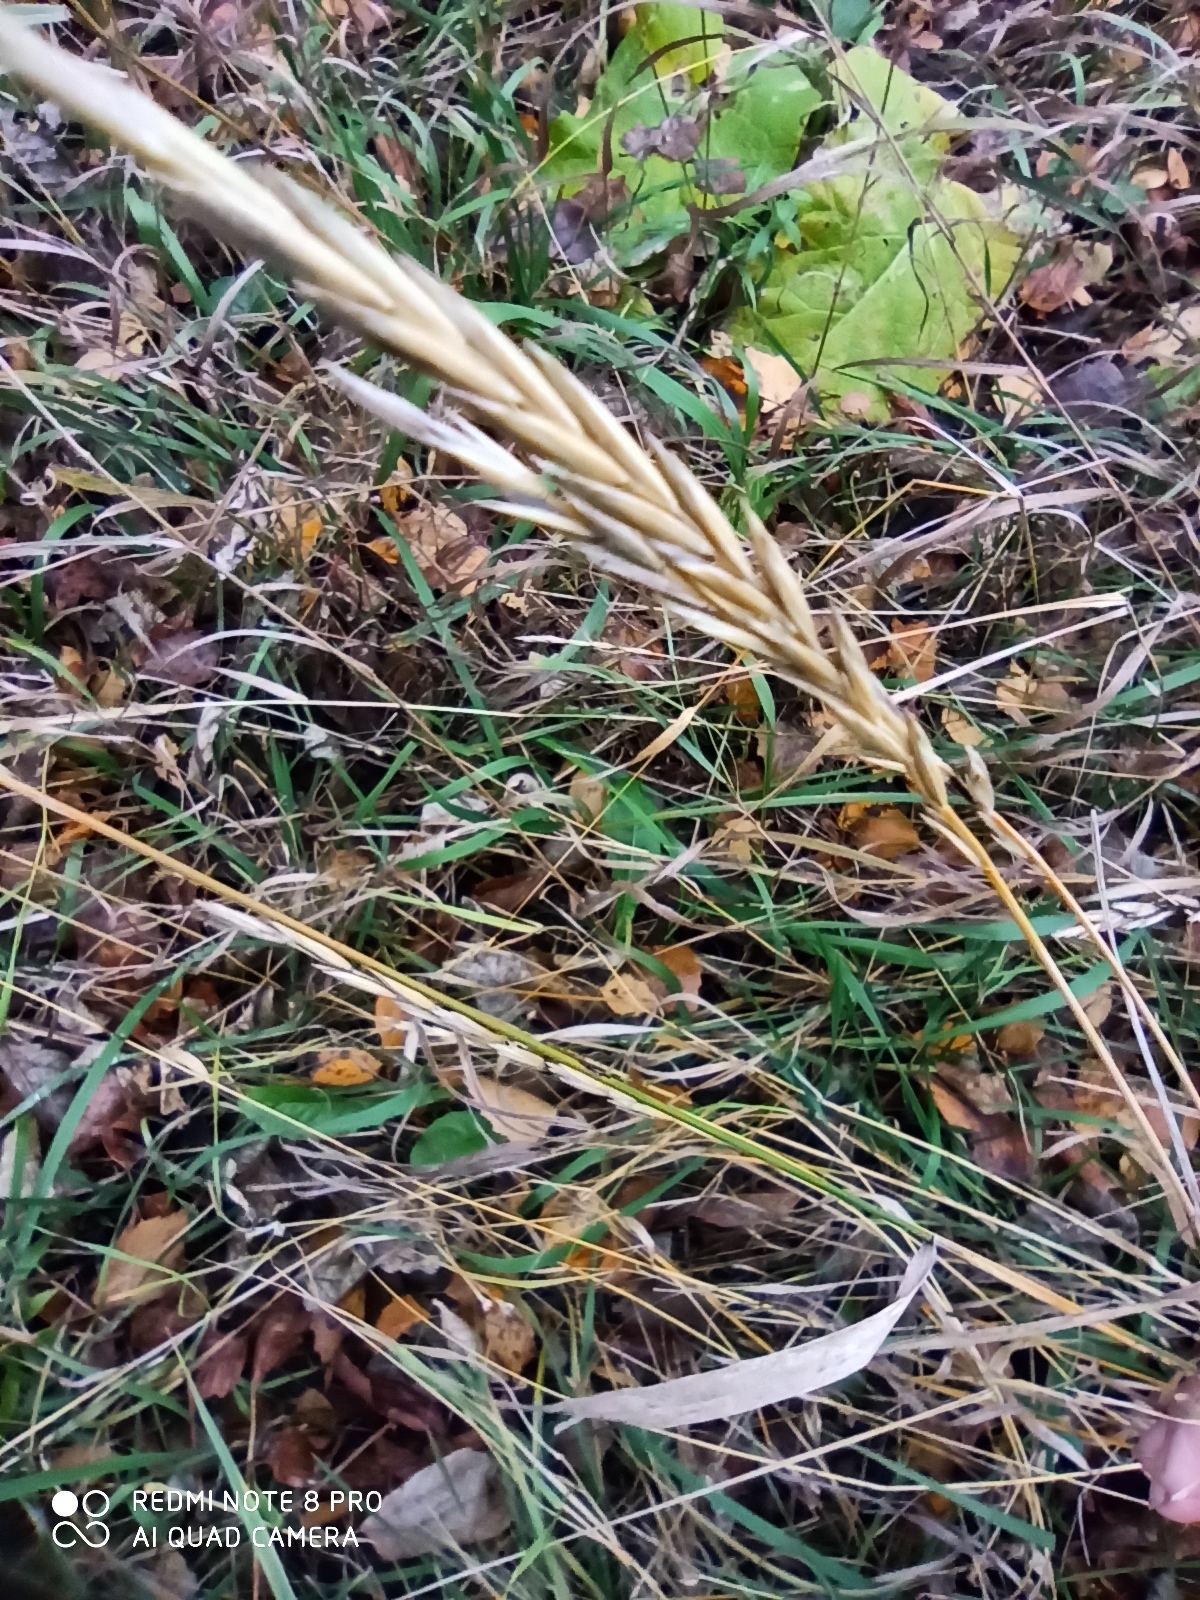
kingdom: Plantae
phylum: Tracheophyta
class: Liliopsida
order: Poales
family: Poaceae
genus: Elymus
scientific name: Elymus repens
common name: Quackgrass
